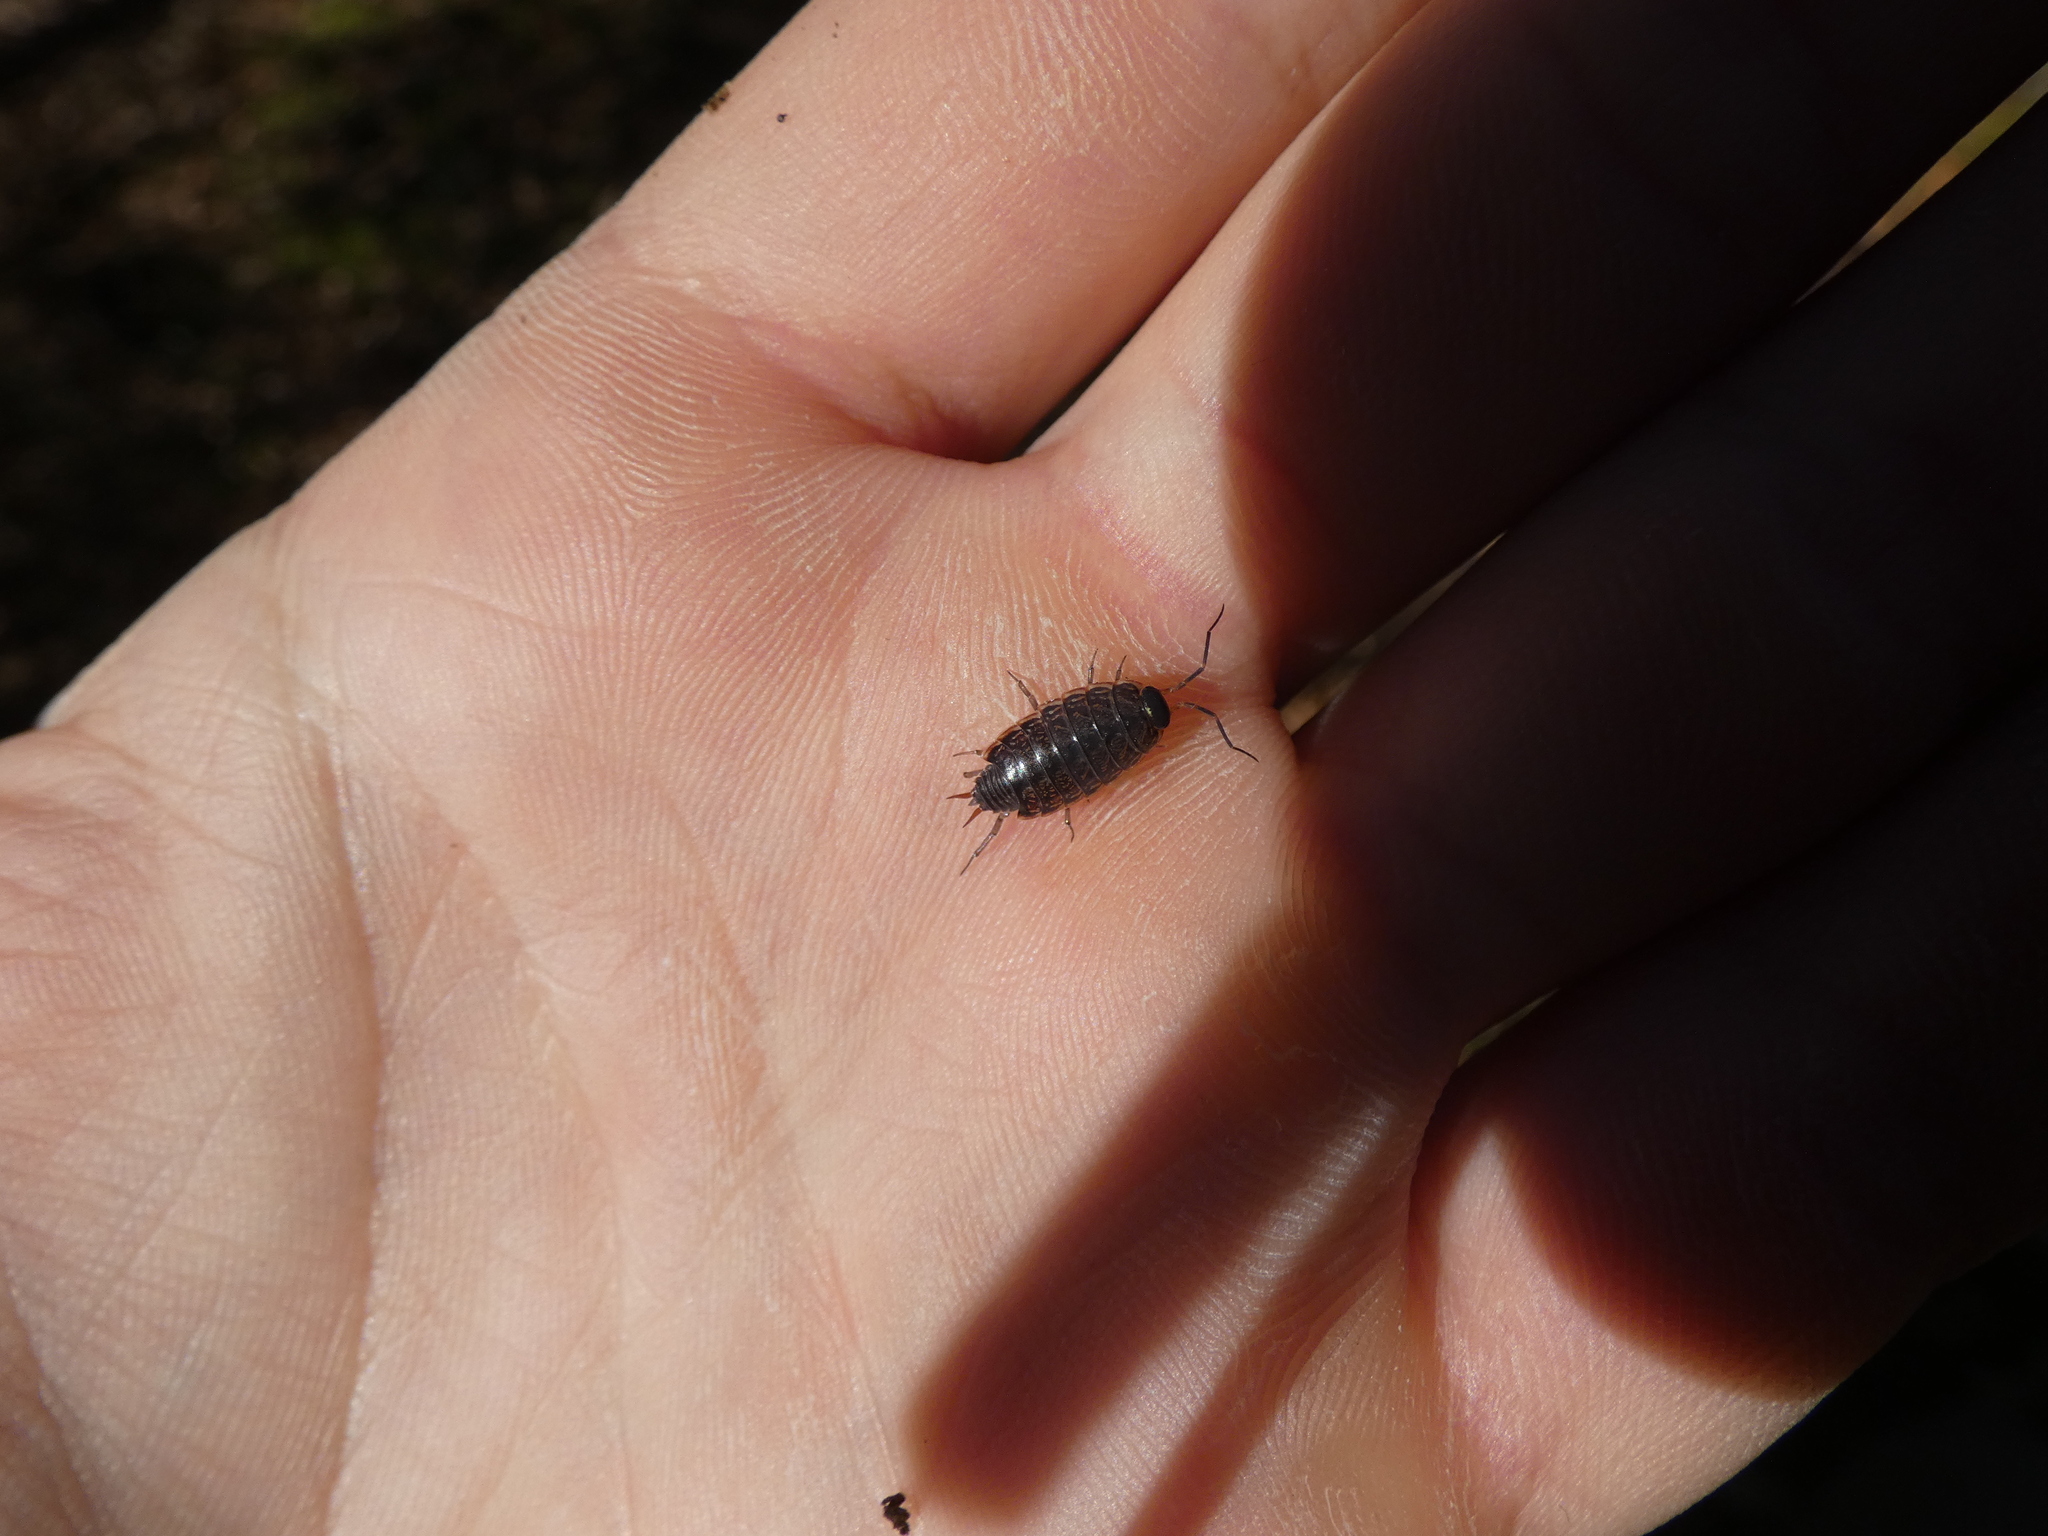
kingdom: Animalia
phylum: Arthropoda
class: Malacostraca
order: Isopoda
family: Philosciidae
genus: Philoscia
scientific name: Philoscia muscorum
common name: Common striped woodlouse
